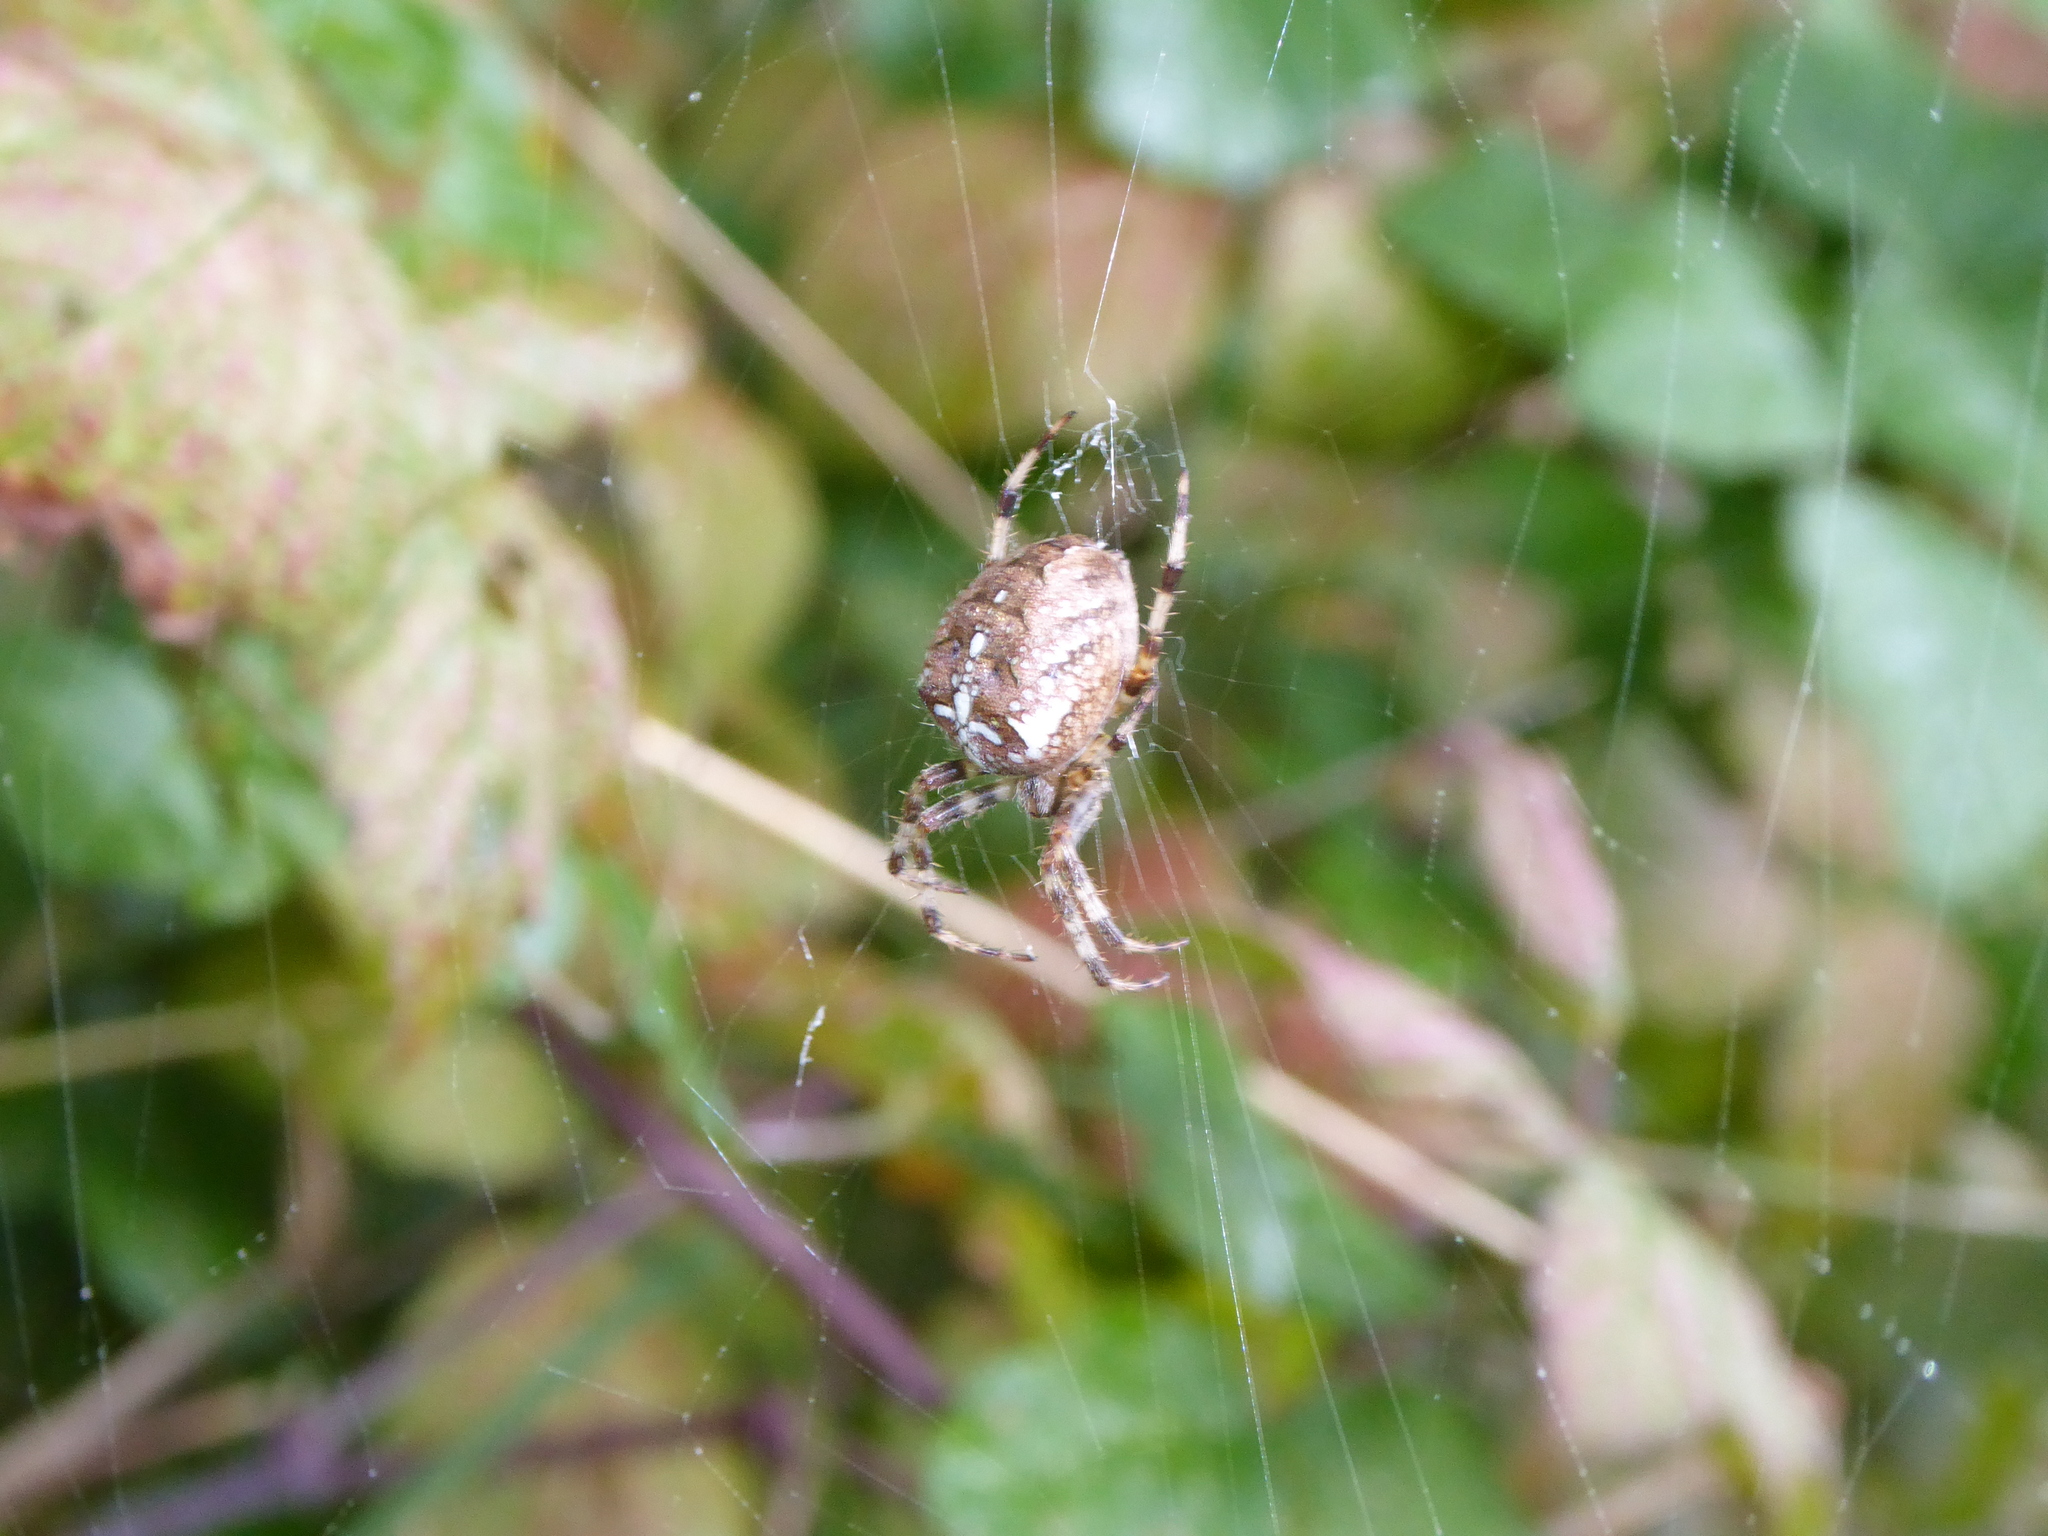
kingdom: Animalia
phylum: Arthropoda
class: Arachnida
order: Araneae
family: Araneidae
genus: Araneus
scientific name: Araneus diadematus
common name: Cross orbweaver
